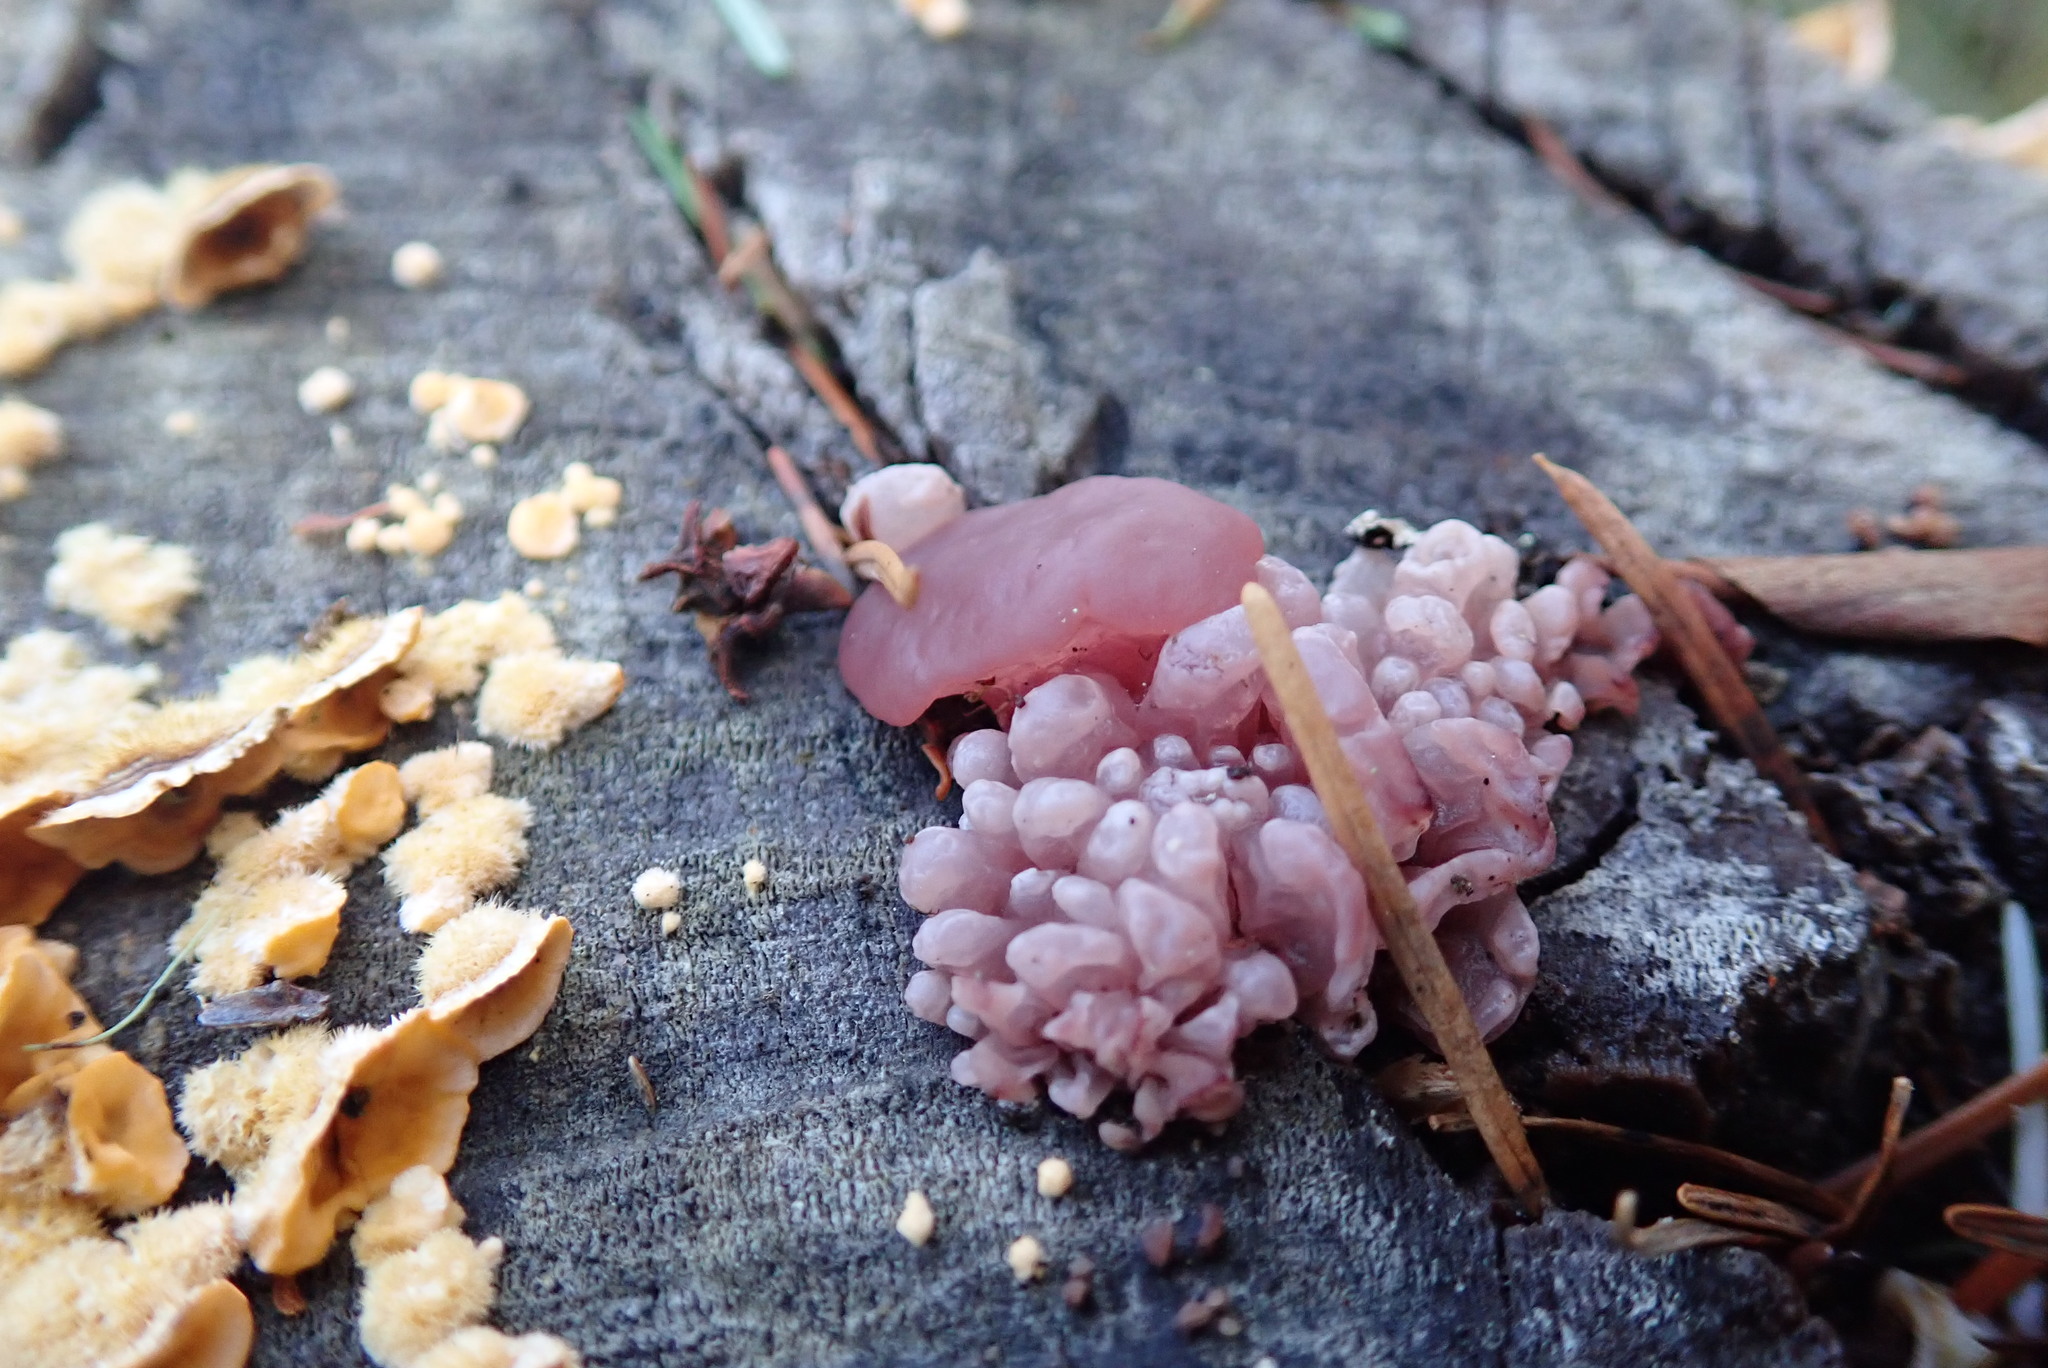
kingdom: Fungi
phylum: Ascomycota
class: Leotiomycetes
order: Helotiales
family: Gelatinodiscaceae
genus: Ascocoryne
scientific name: Ascocoryne sarcoides
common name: Purple jellydisc
